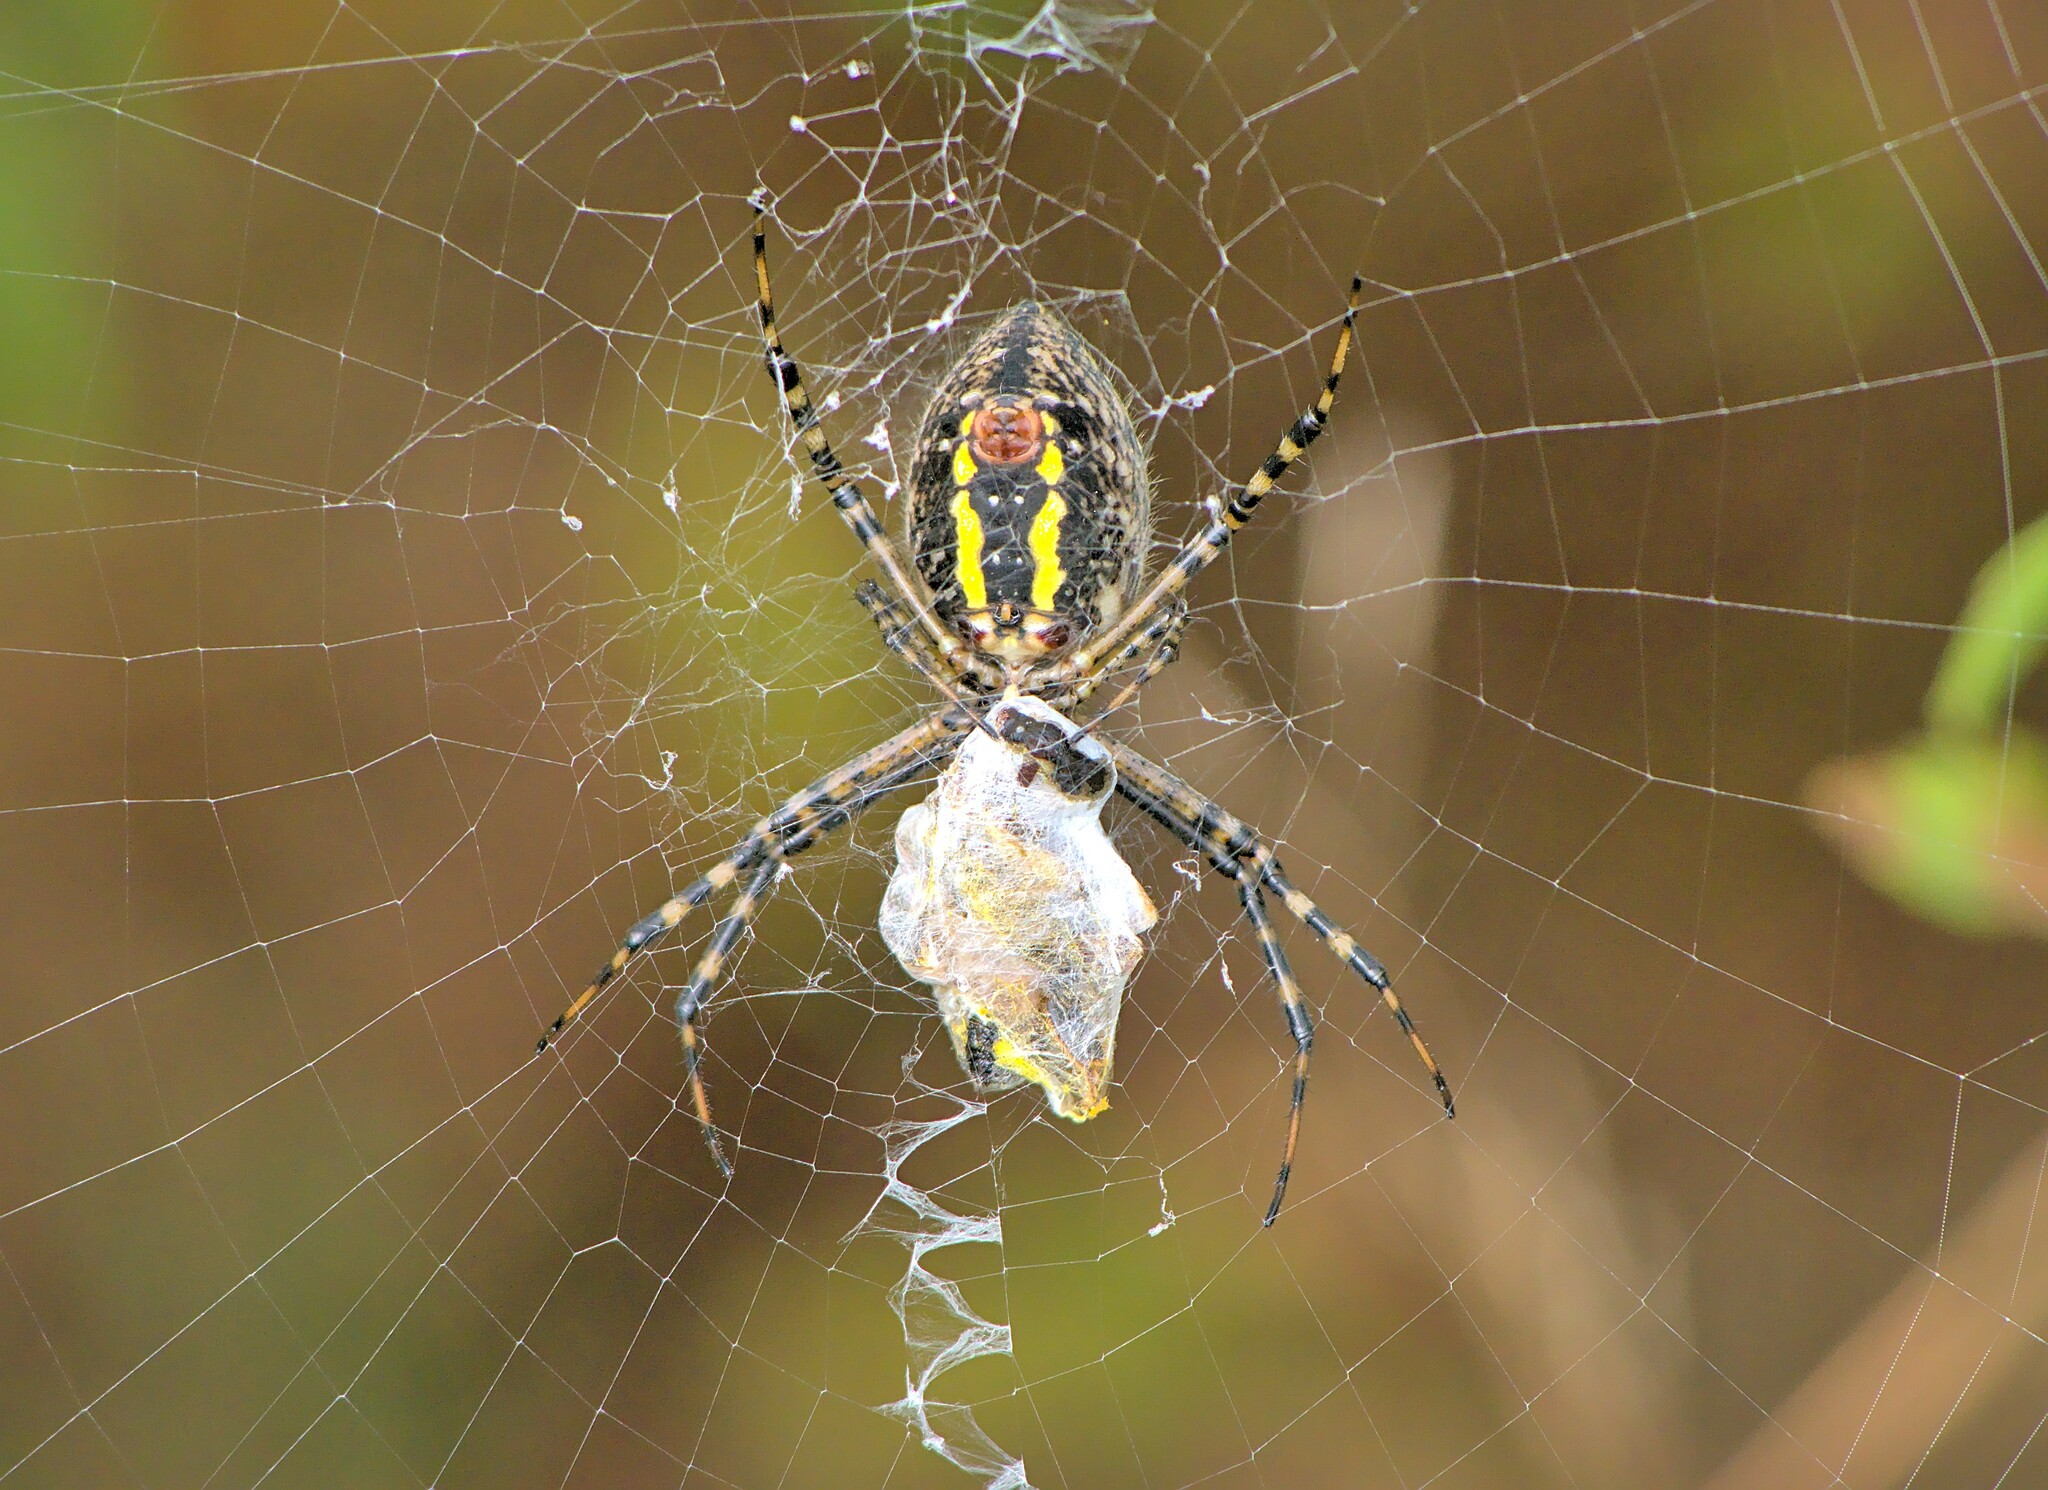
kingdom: Animalia
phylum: Arthropoda
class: Arachnida
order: Araneae
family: Araneidae
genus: Argiope
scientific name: Argiope trifasciata
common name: Banded garden spider
